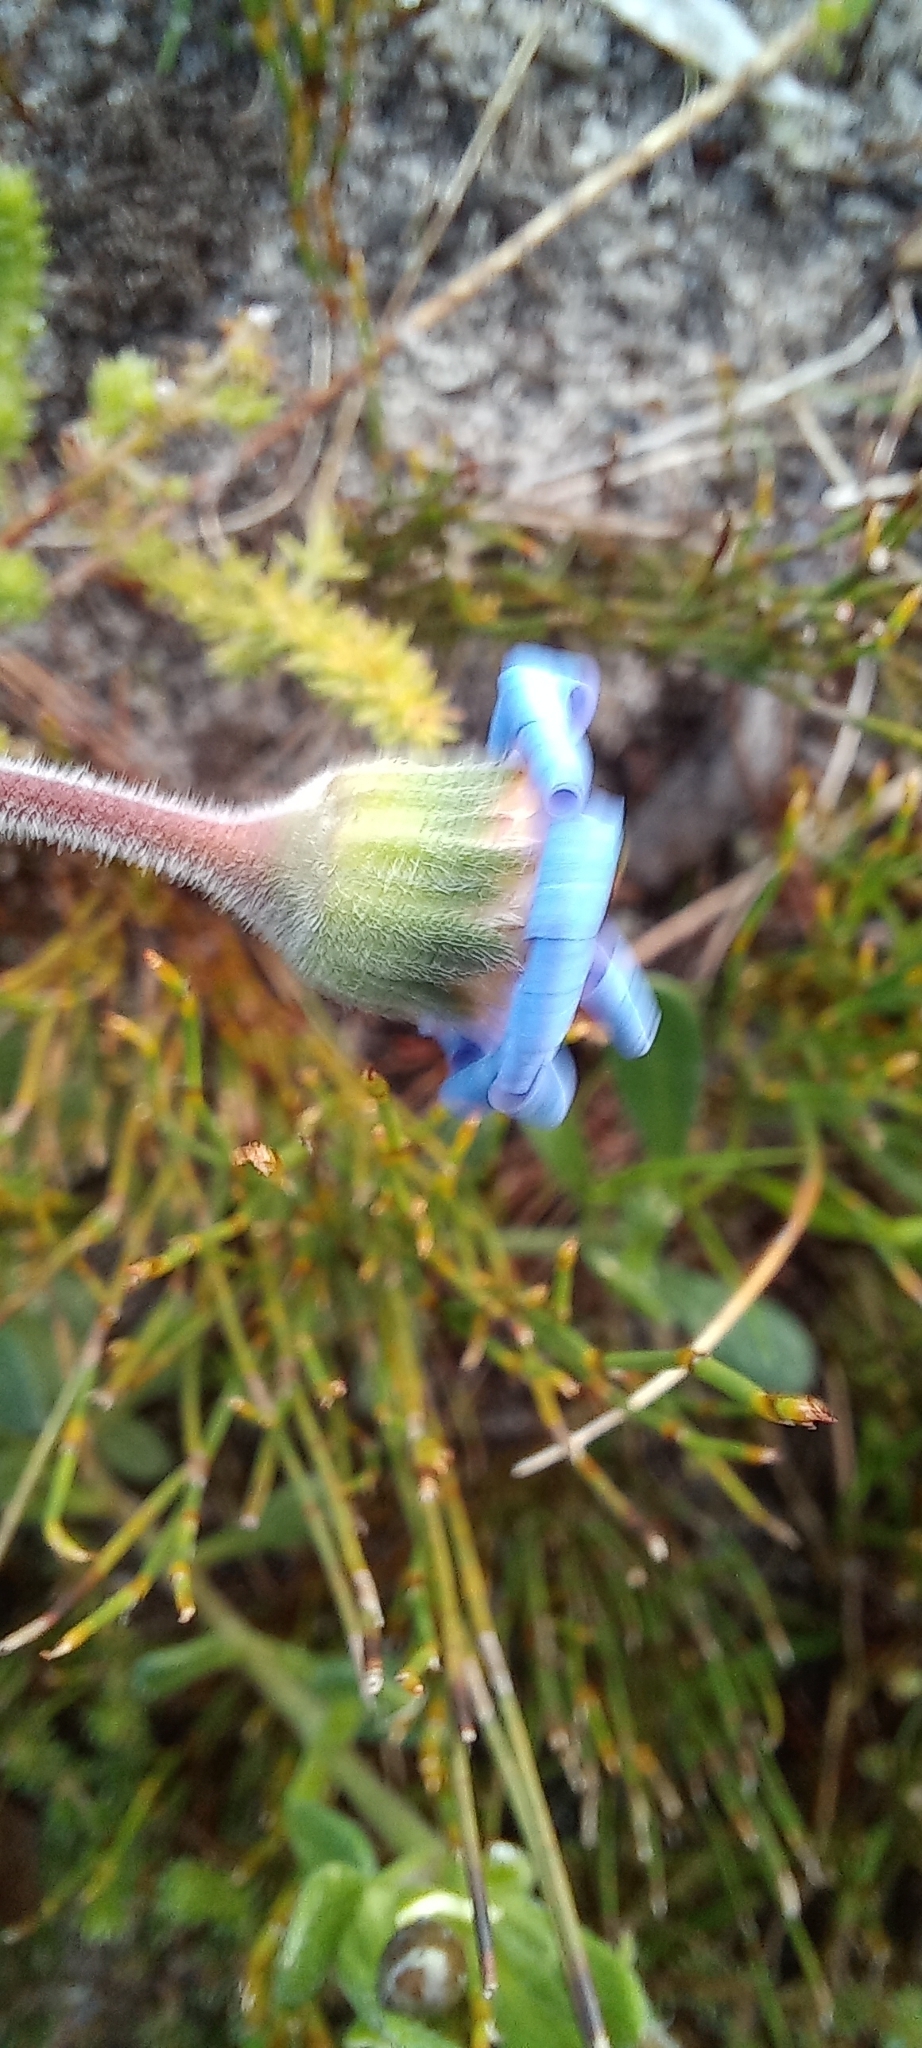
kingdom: Plantae
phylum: Tracheophyta
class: Magnoliopsida
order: Asterales
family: Asteraceae
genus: Felicia
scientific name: Felicia amoena
